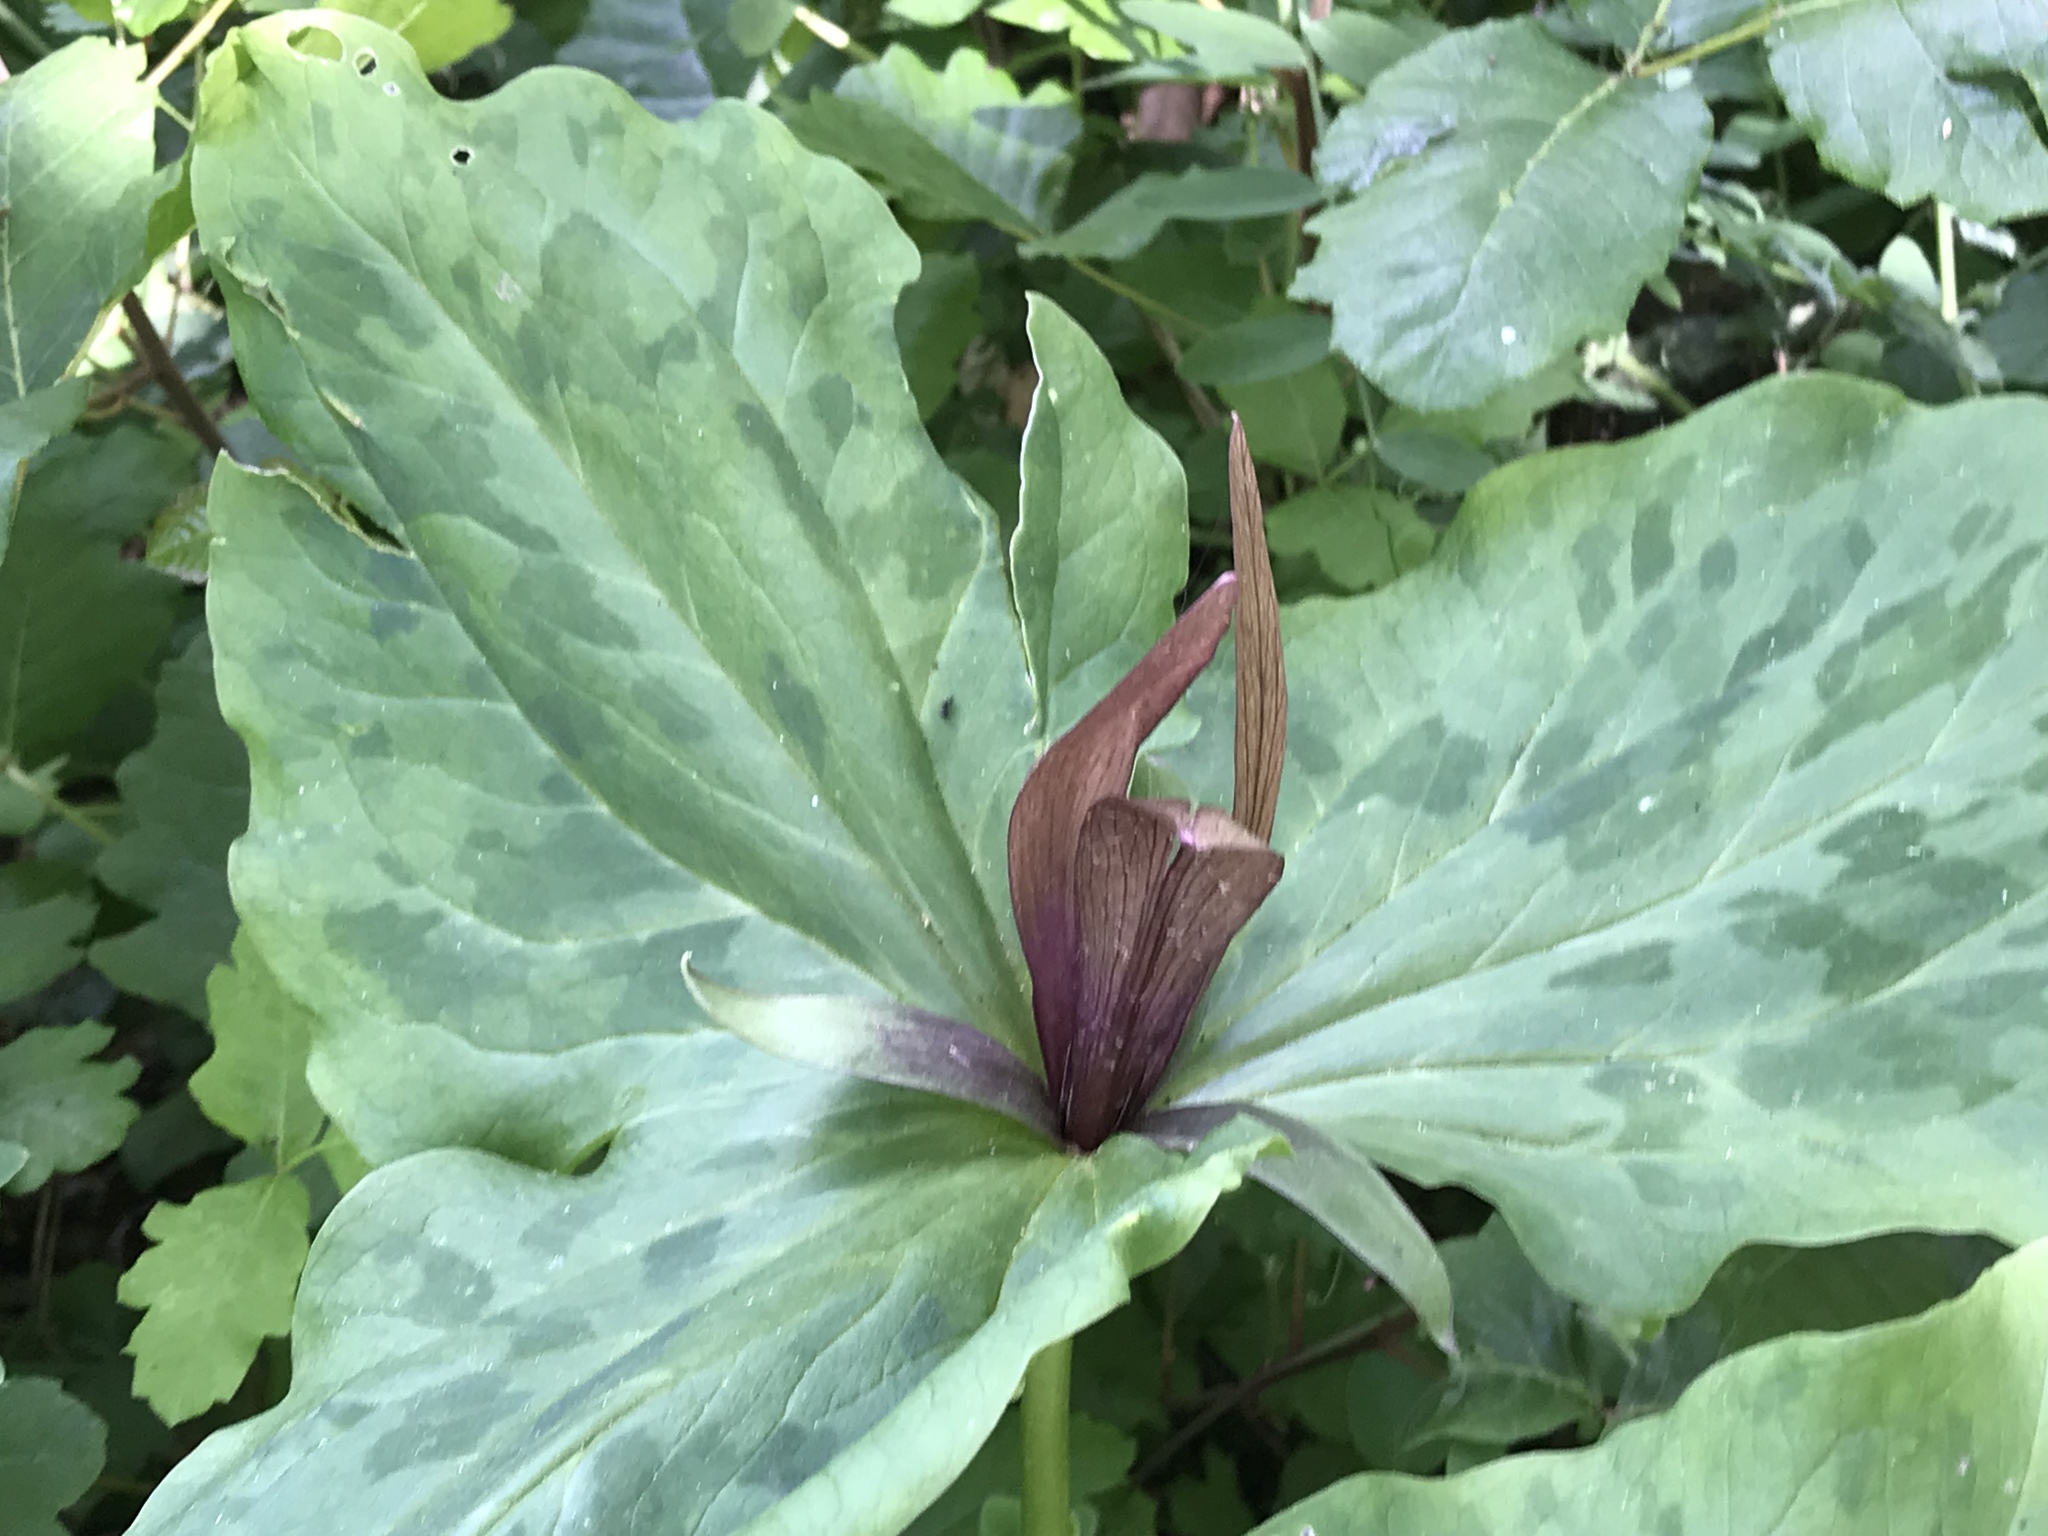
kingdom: Plantae
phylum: Tracheophyta
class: Liliopsida
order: Liliales
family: Melanthiaceae
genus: Trillium
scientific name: Trillium chloropetalum
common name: Giant trillium
